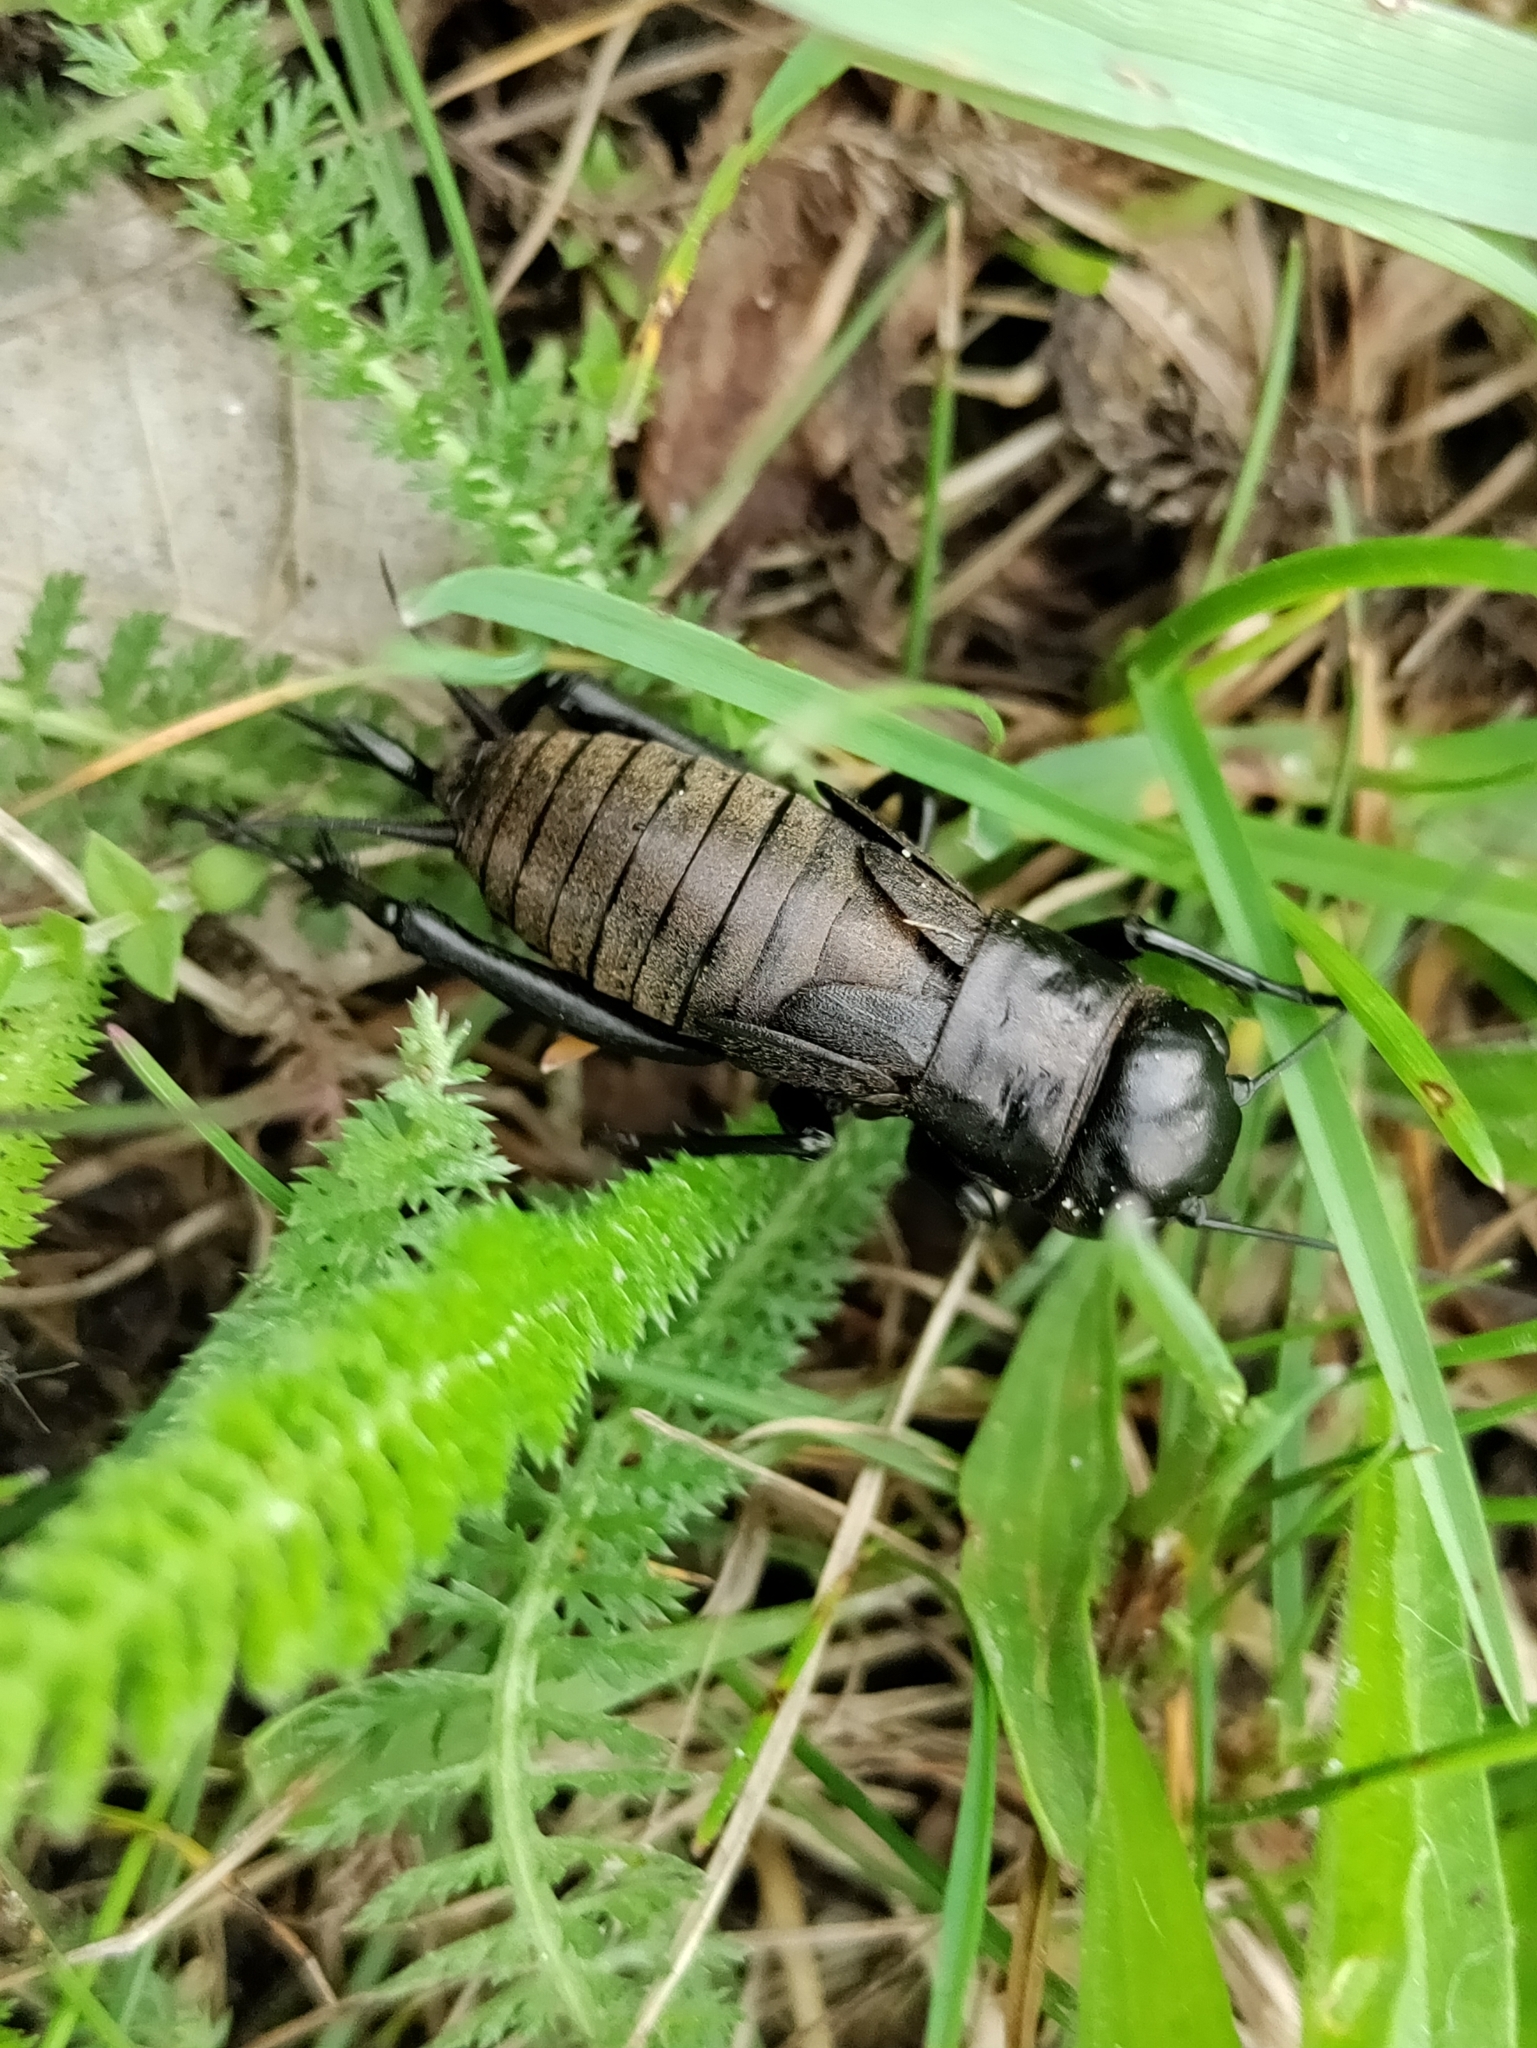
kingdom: Animalia
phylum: Arthropoda
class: Insecta
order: Orthoptera
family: Gryllidae
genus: Gryllus
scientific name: Gryllus campestris
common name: Field cricket
